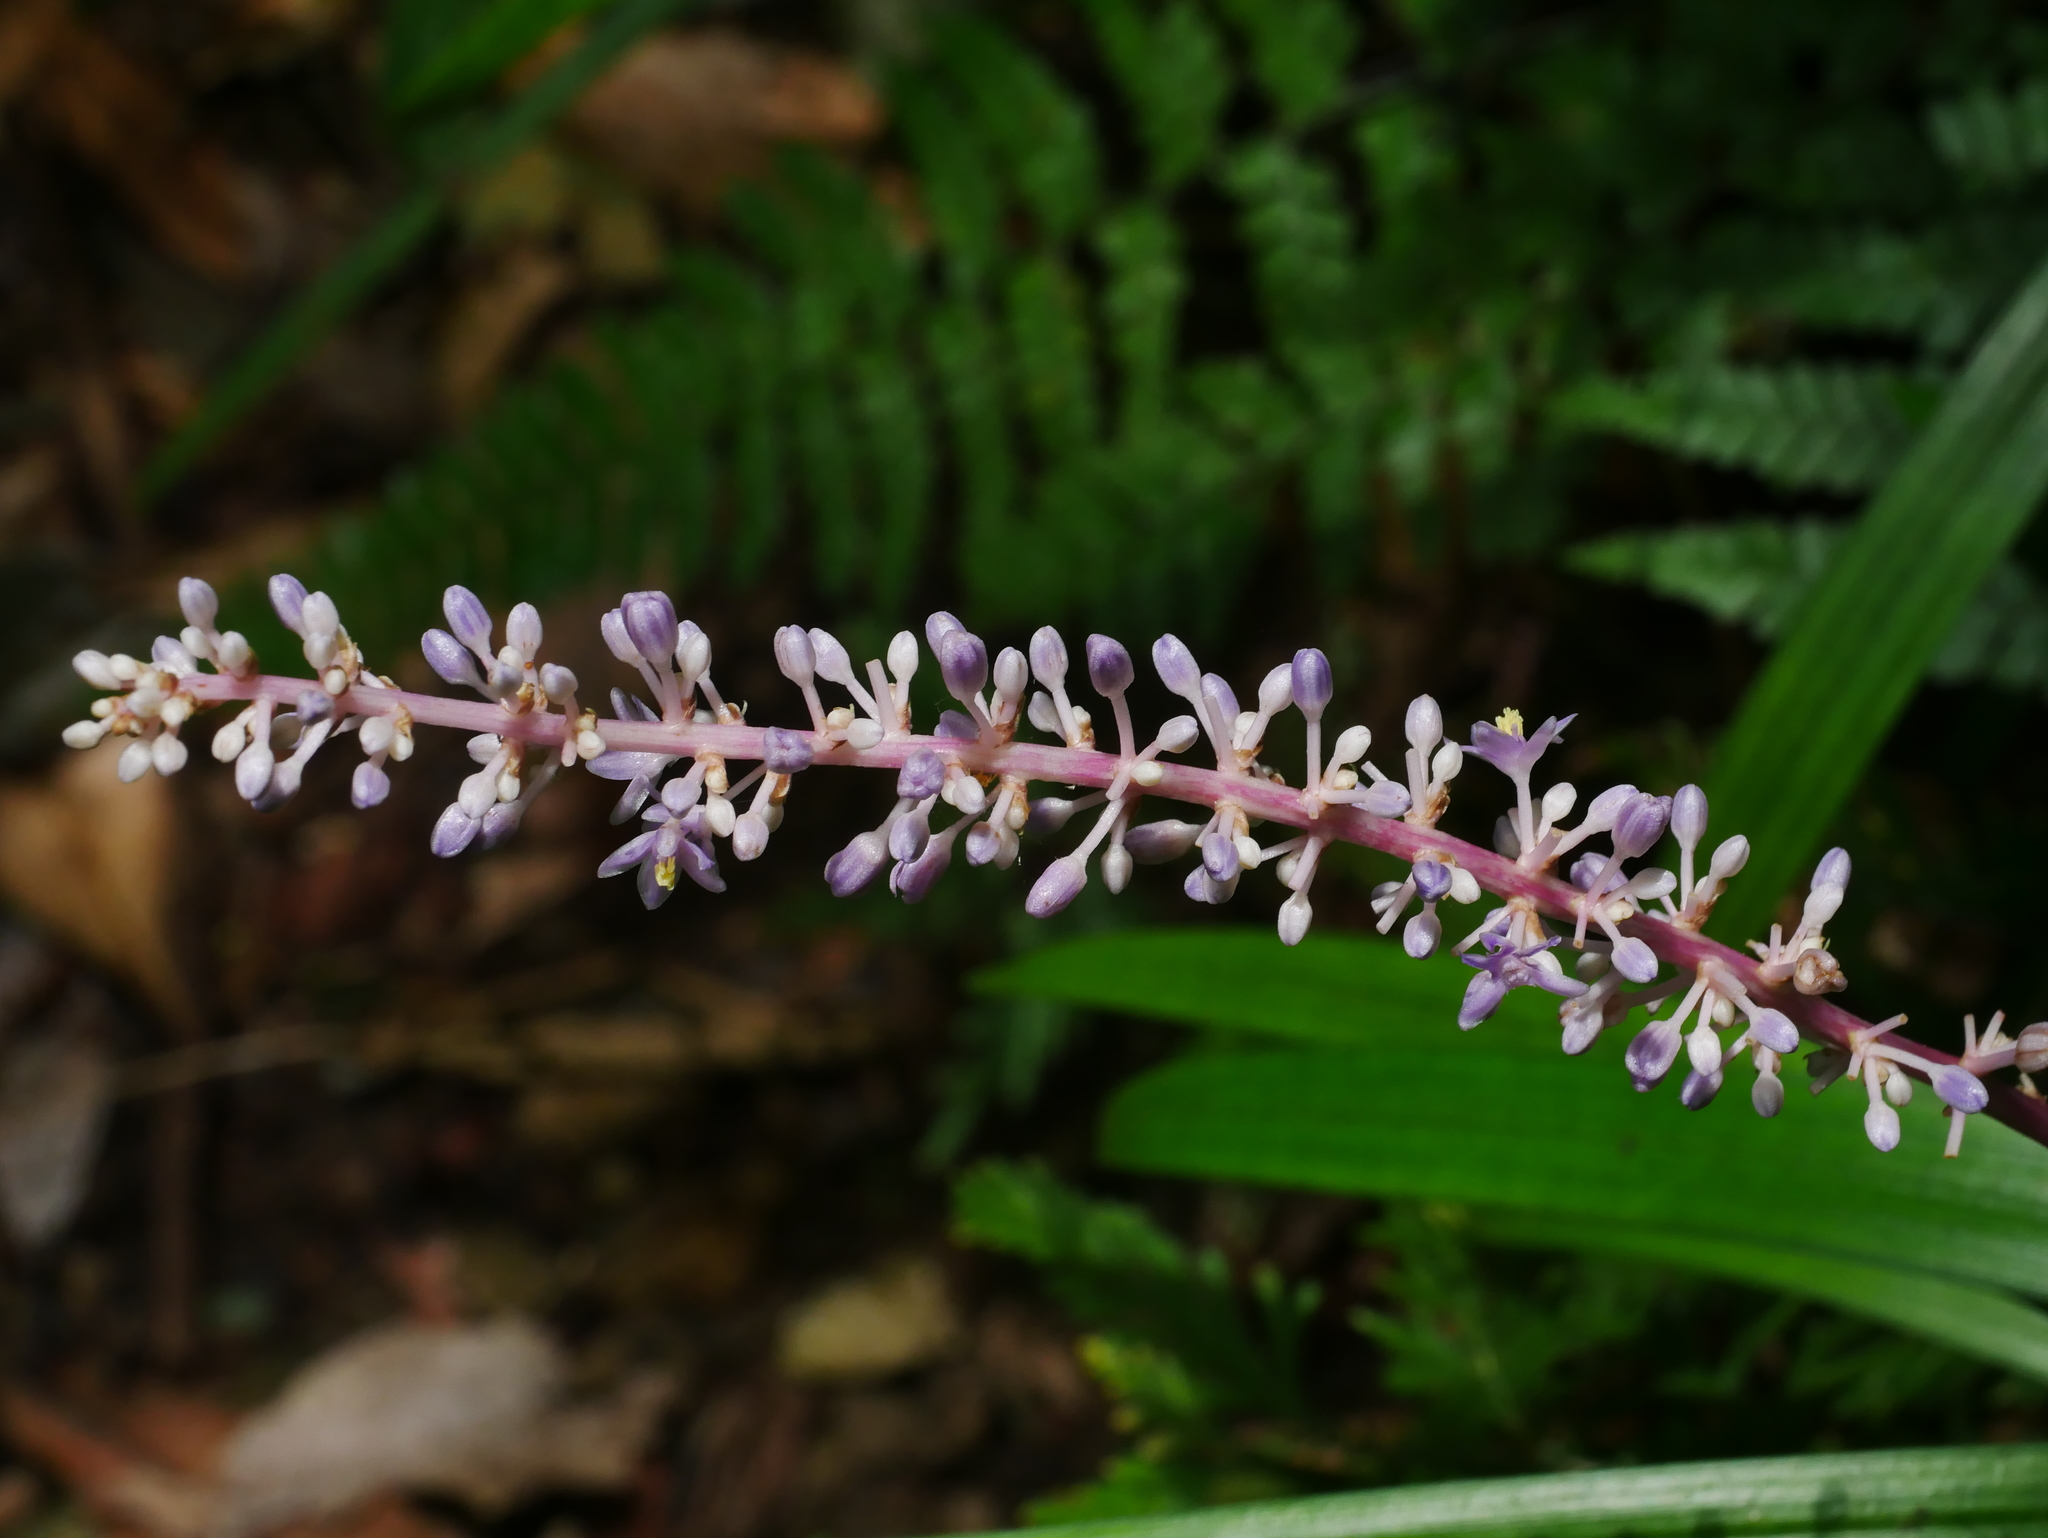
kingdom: Plantae
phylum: Tracheophyta
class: Liliopsida
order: Asparagales
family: Asparagaceae
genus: Liriope
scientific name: Liriope muscari
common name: Big blue lilyturf
